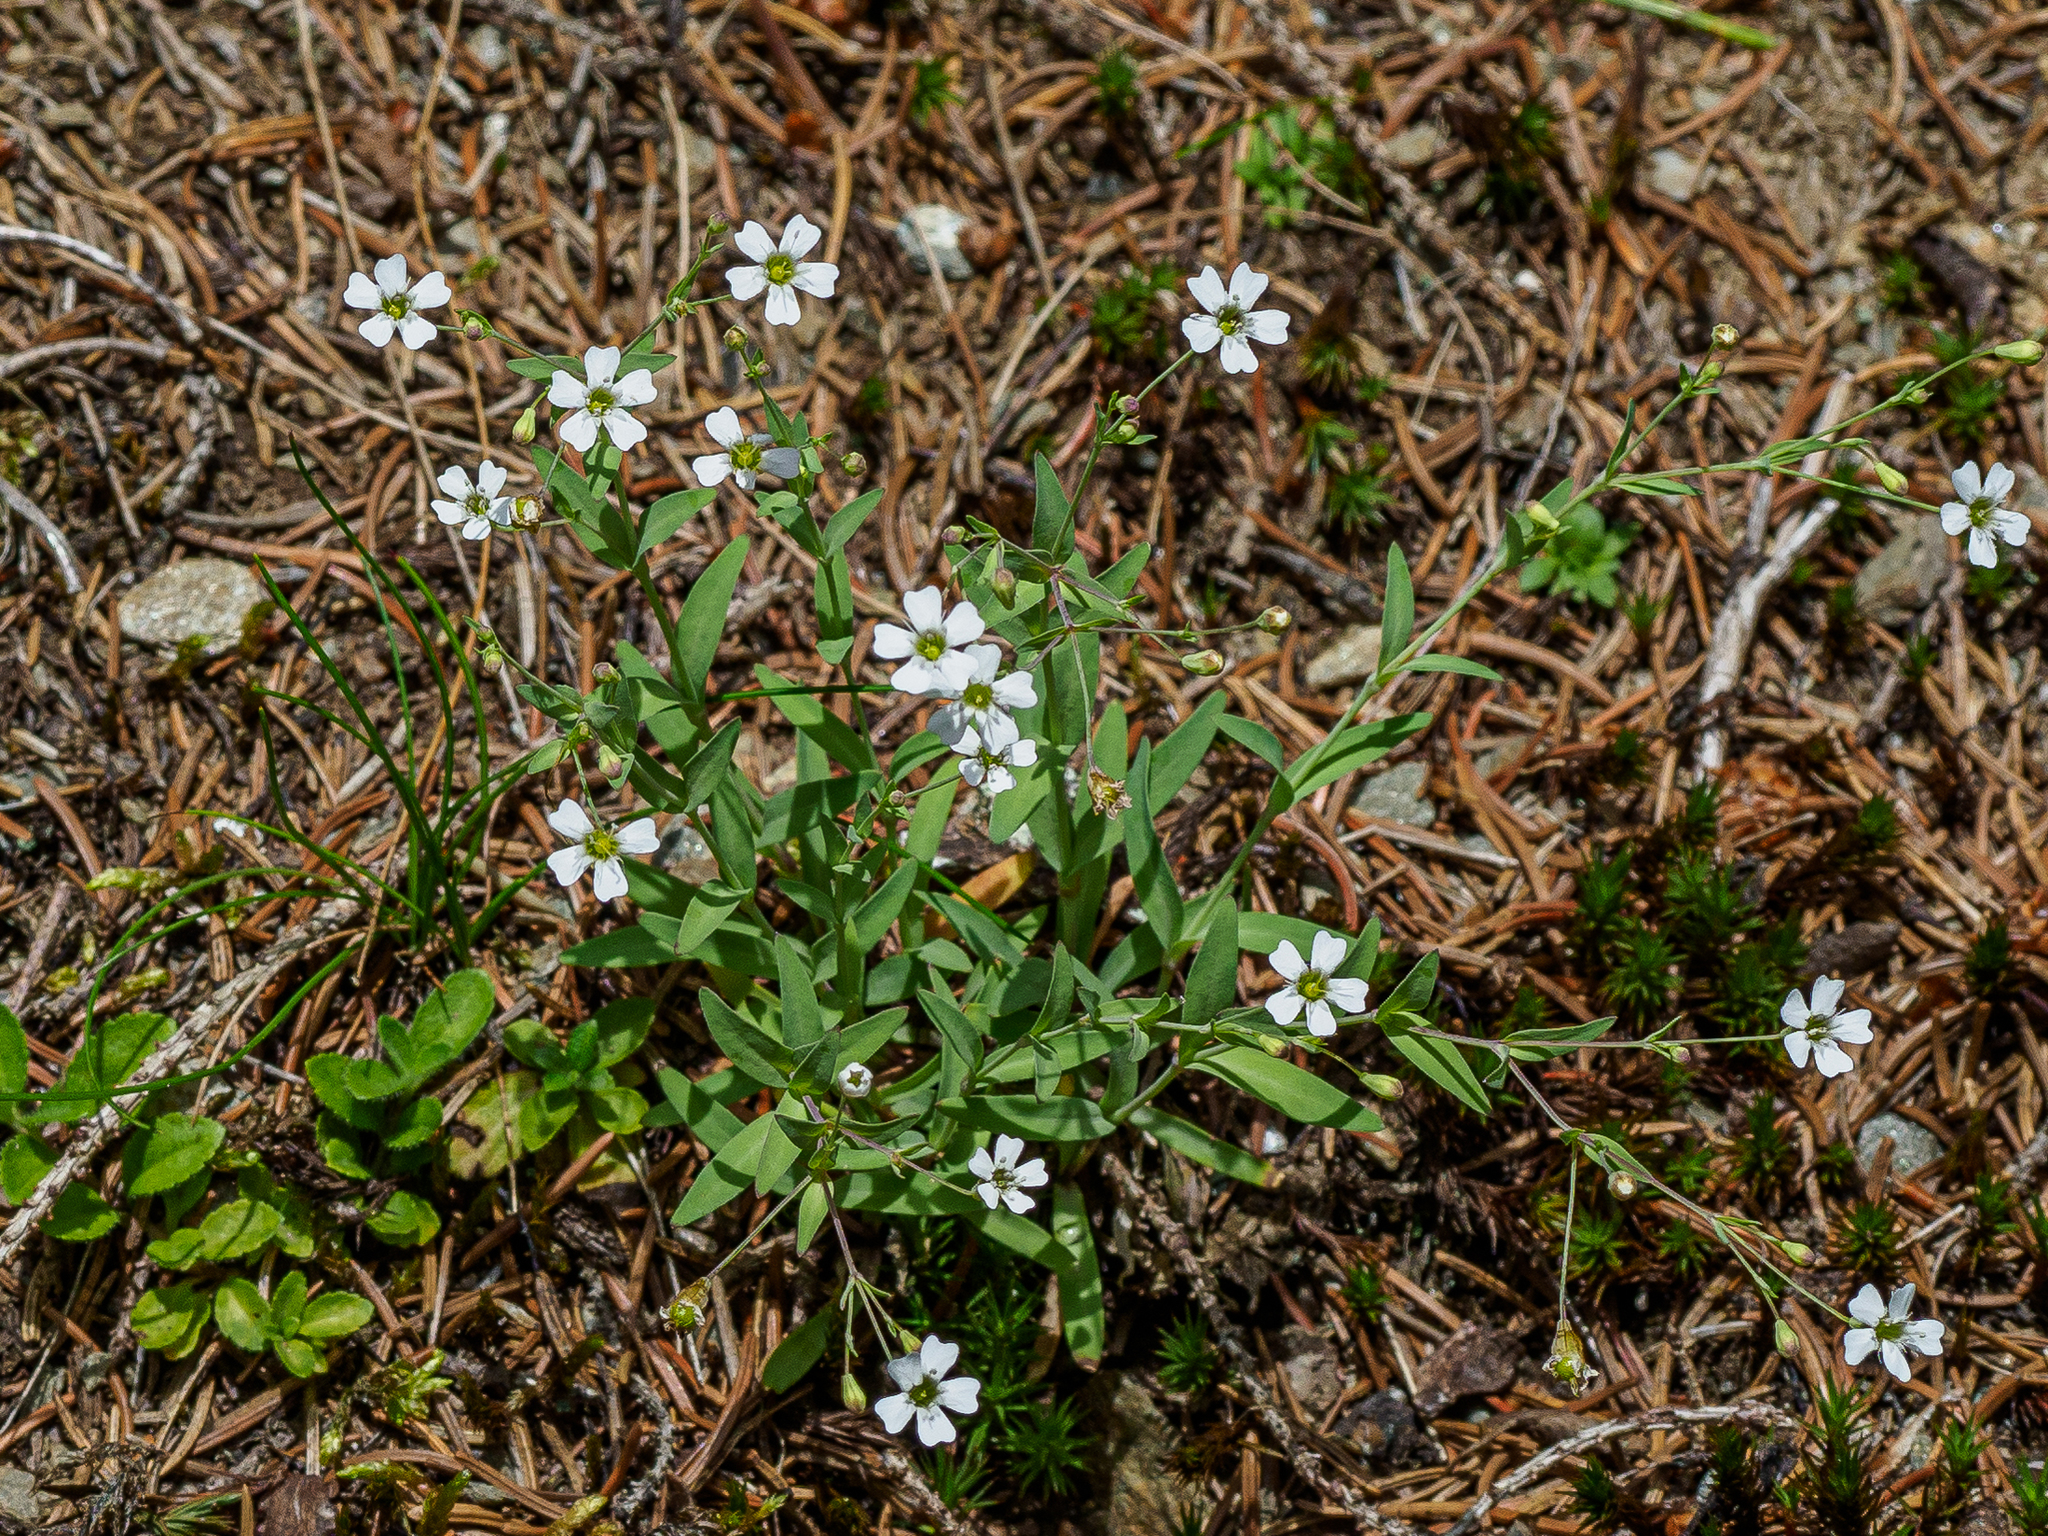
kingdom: Plantae
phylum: Tracheophyta
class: Magnoliopsida
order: Caryophyllales
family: Caryophyllaceae
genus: Atocion
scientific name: Atocion rupestre
